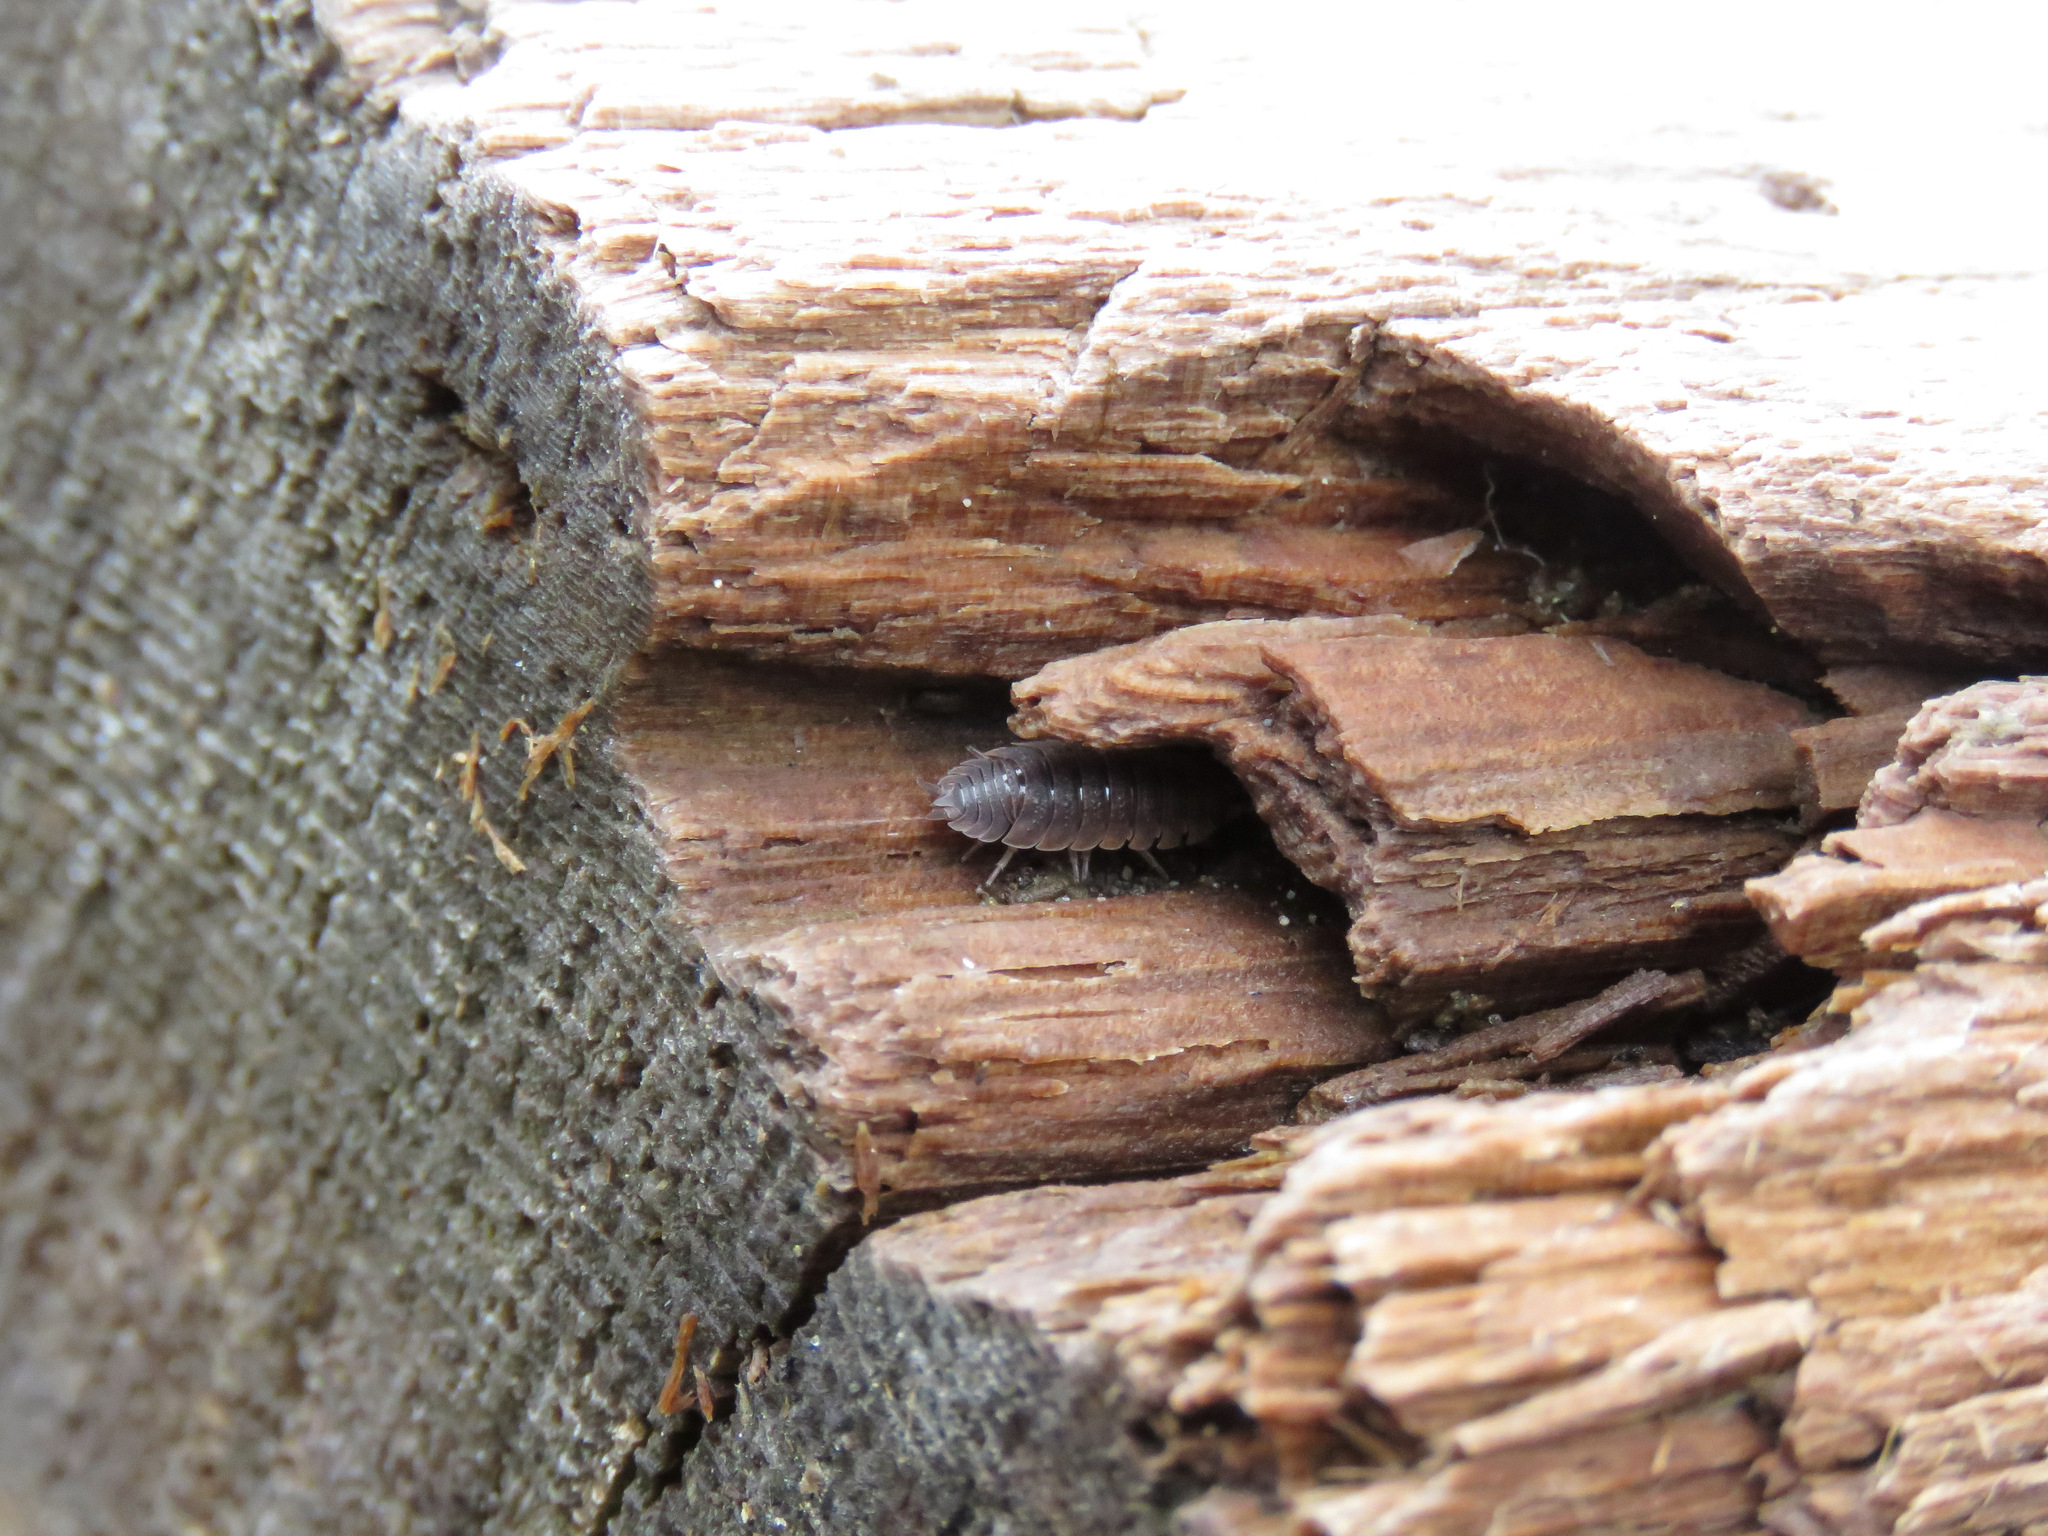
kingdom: Animalia
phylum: Arthropoda
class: Malacostraca
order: Isopoda
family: Porcellionidae
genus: Porcellio
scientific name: Porcellio scaber
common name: Common rough woodlouse
